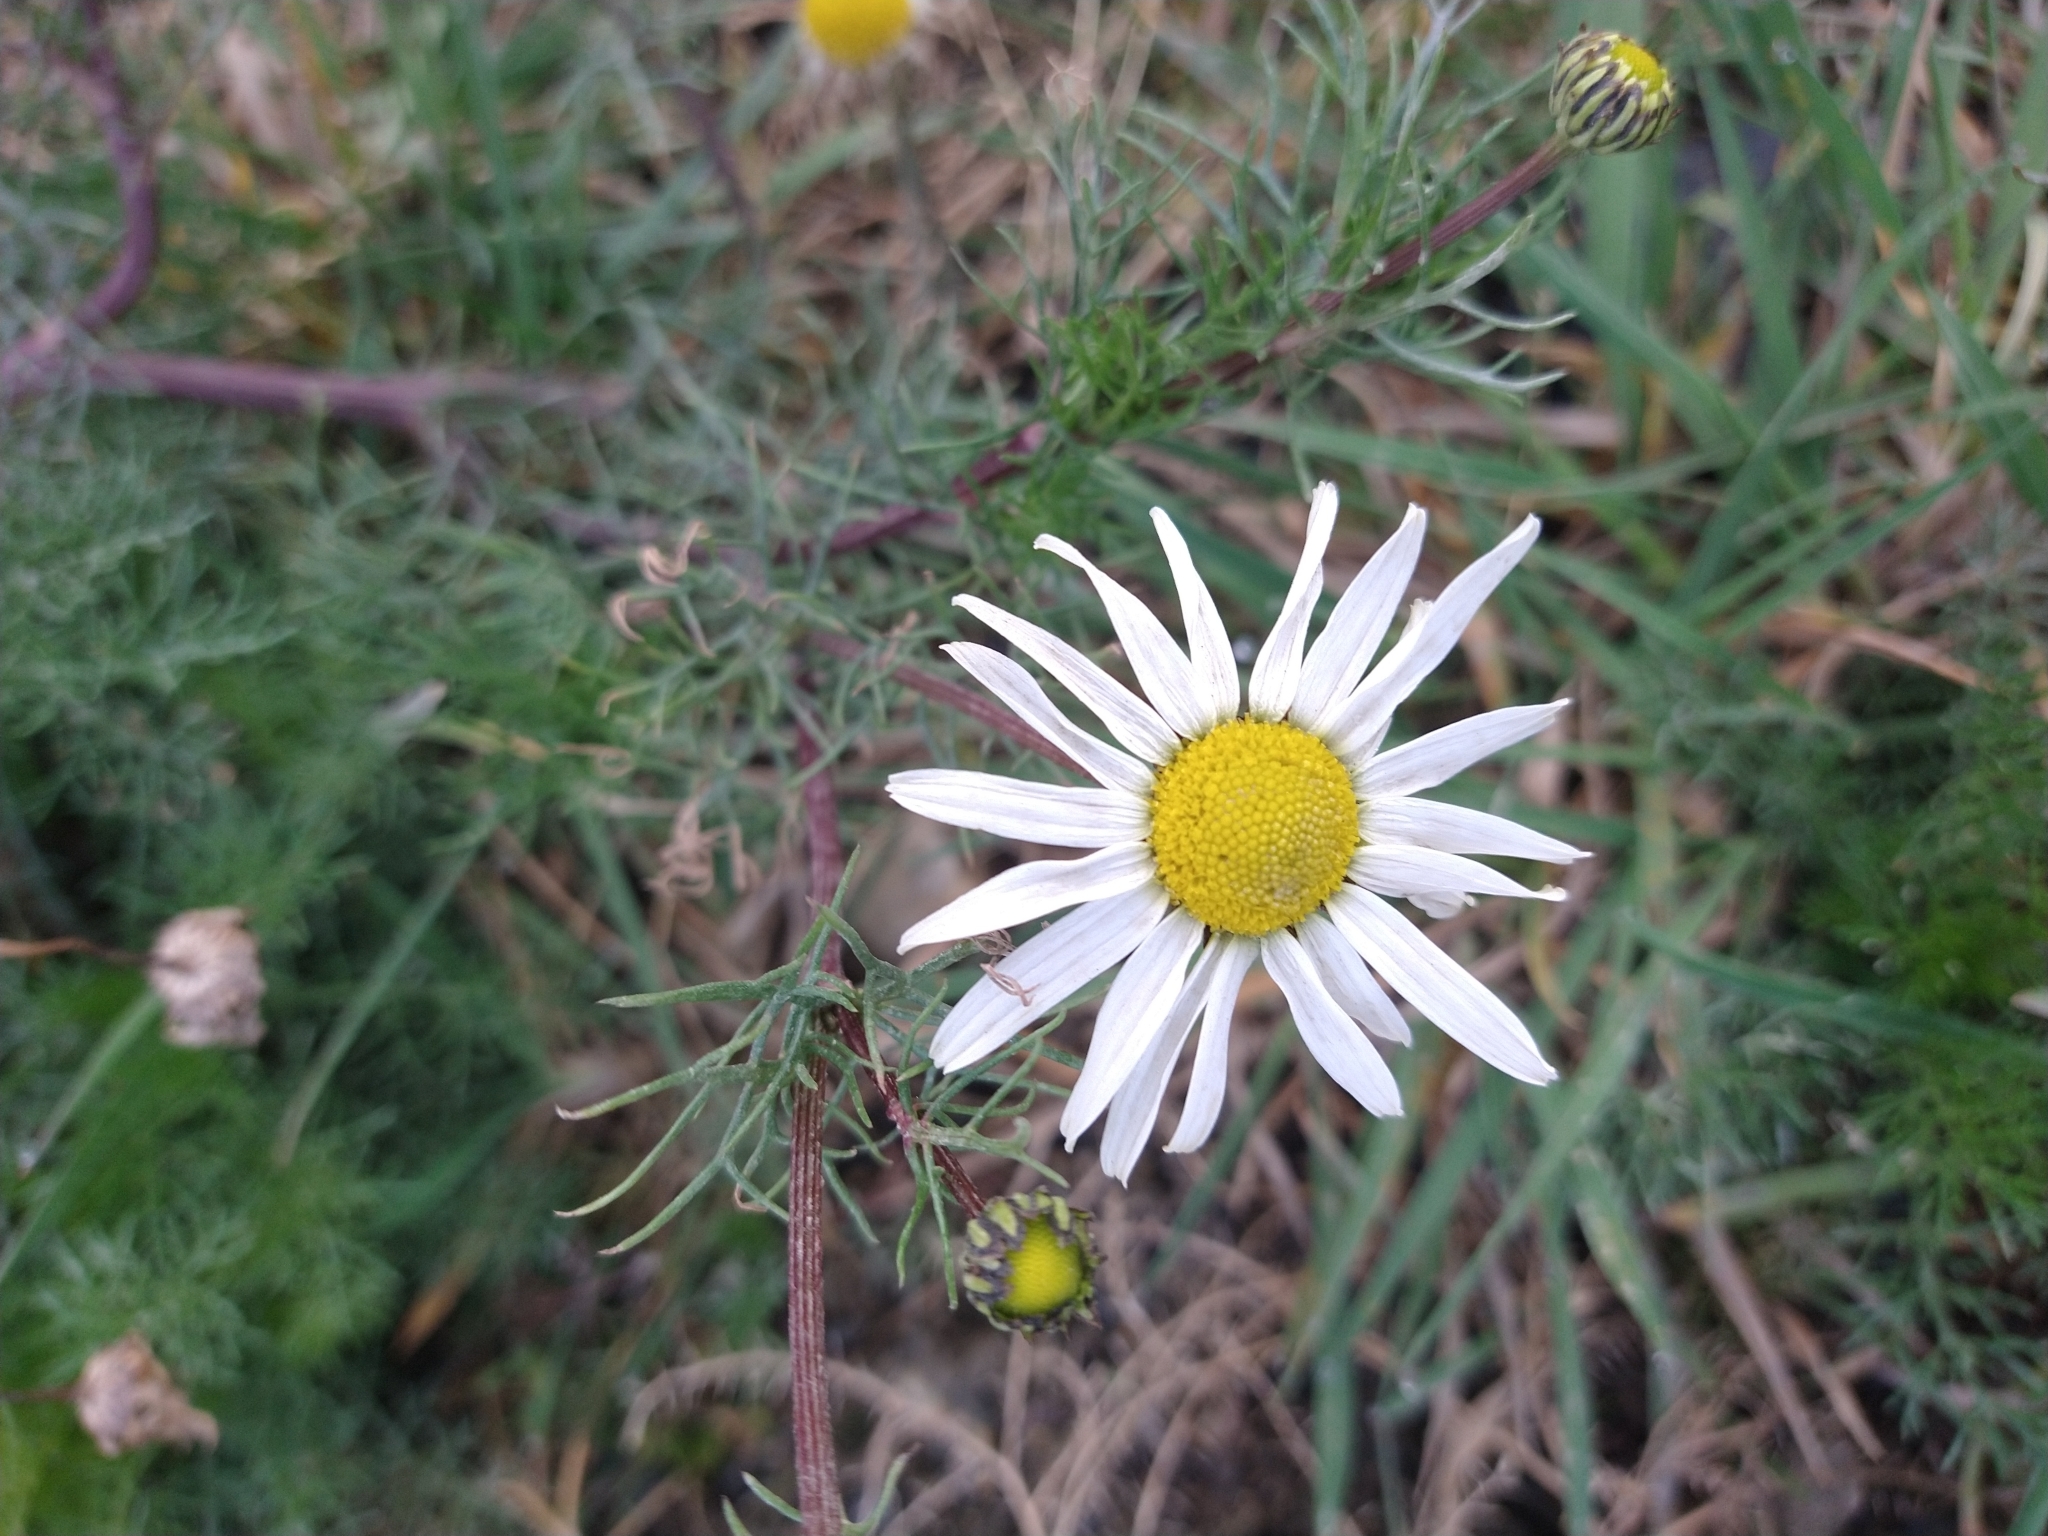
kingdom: Plantae
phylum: Tracheophyta
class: Magnoliopsida
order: Asterales
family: Asteraceae
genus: Tripleurospermum
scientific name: Tripleurospermum inodorum
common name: Scentless mayweed
